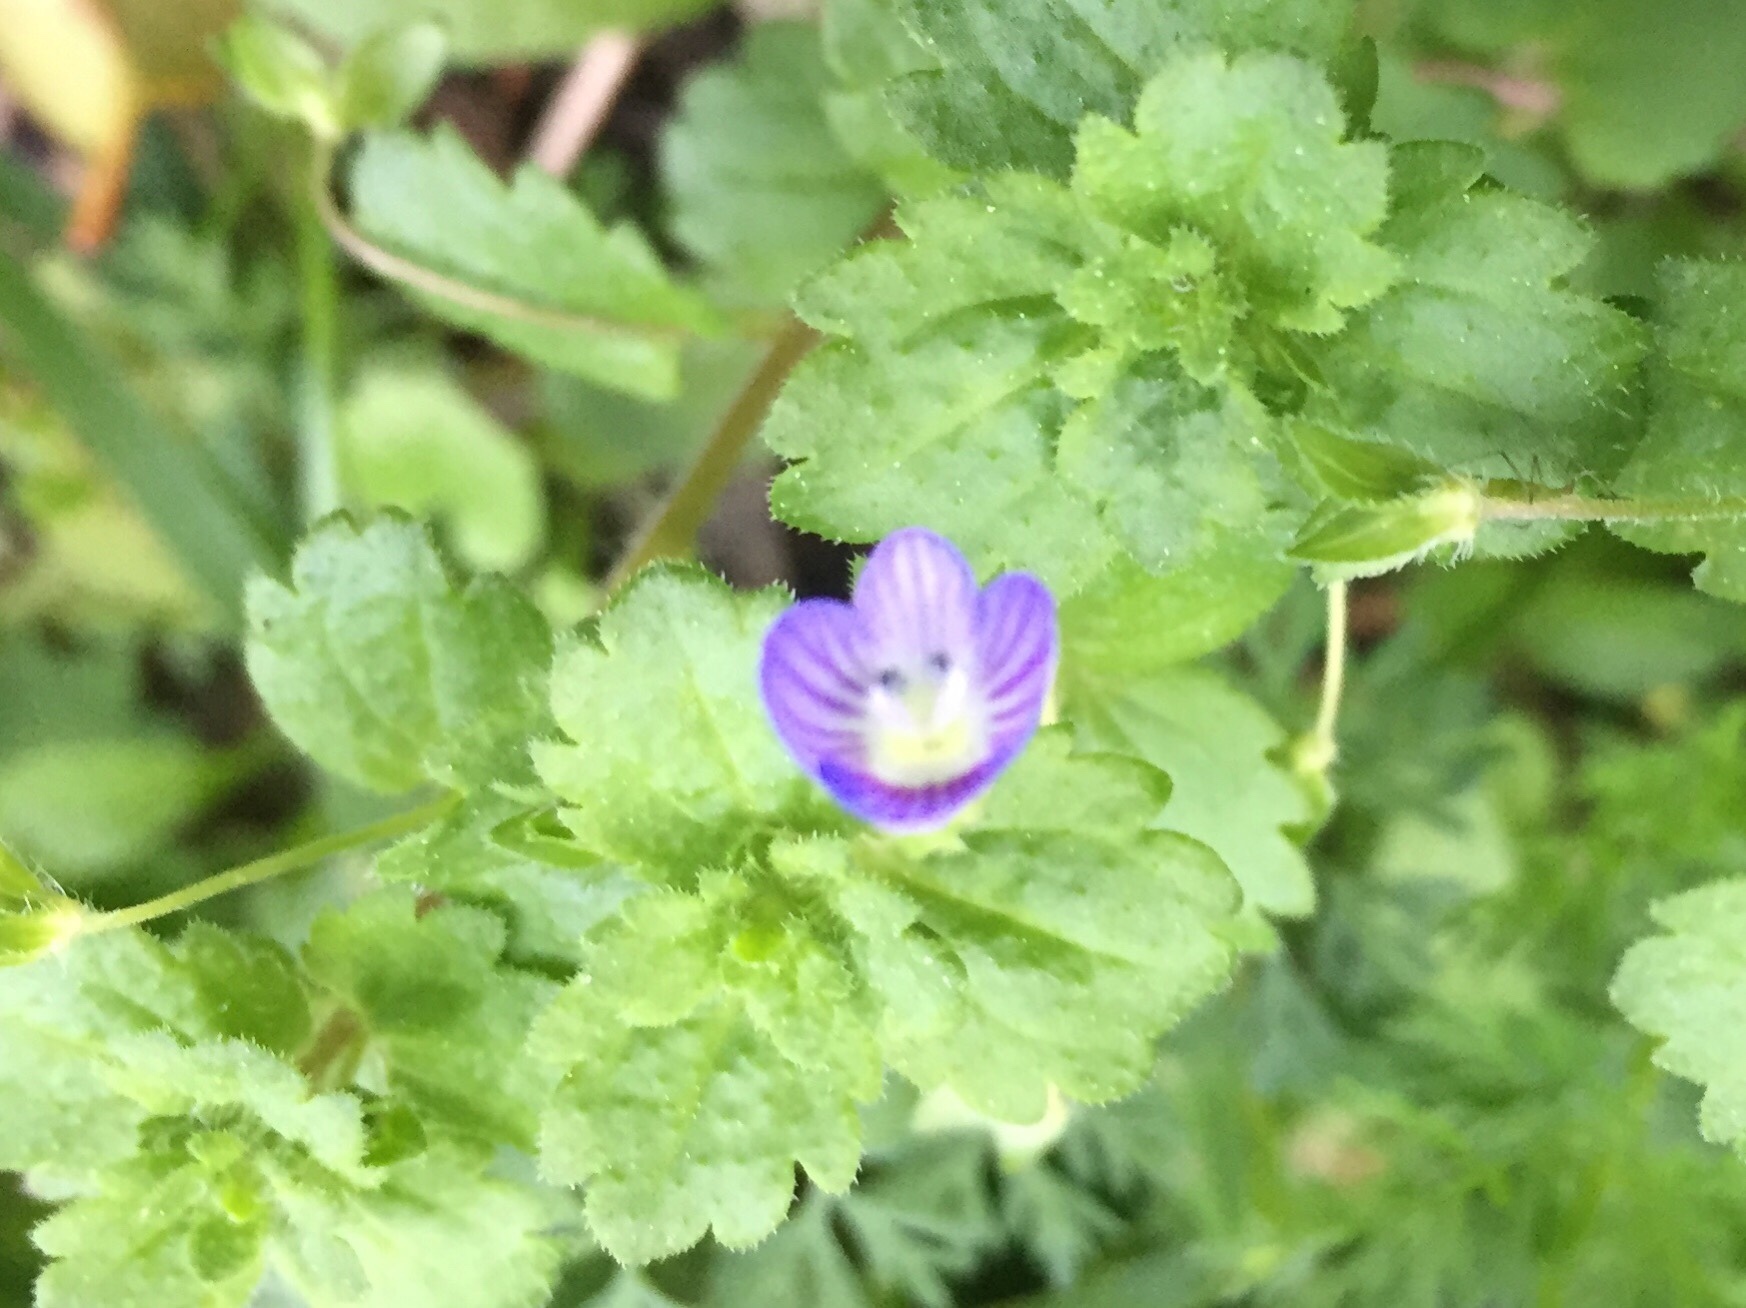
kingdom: Plantae
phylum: Tracheophyta
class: Magnoliopsida
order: Lamiales
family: Plantaginaceae
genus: Veronica
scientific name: Veronica persica
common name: Common field-speedwell
